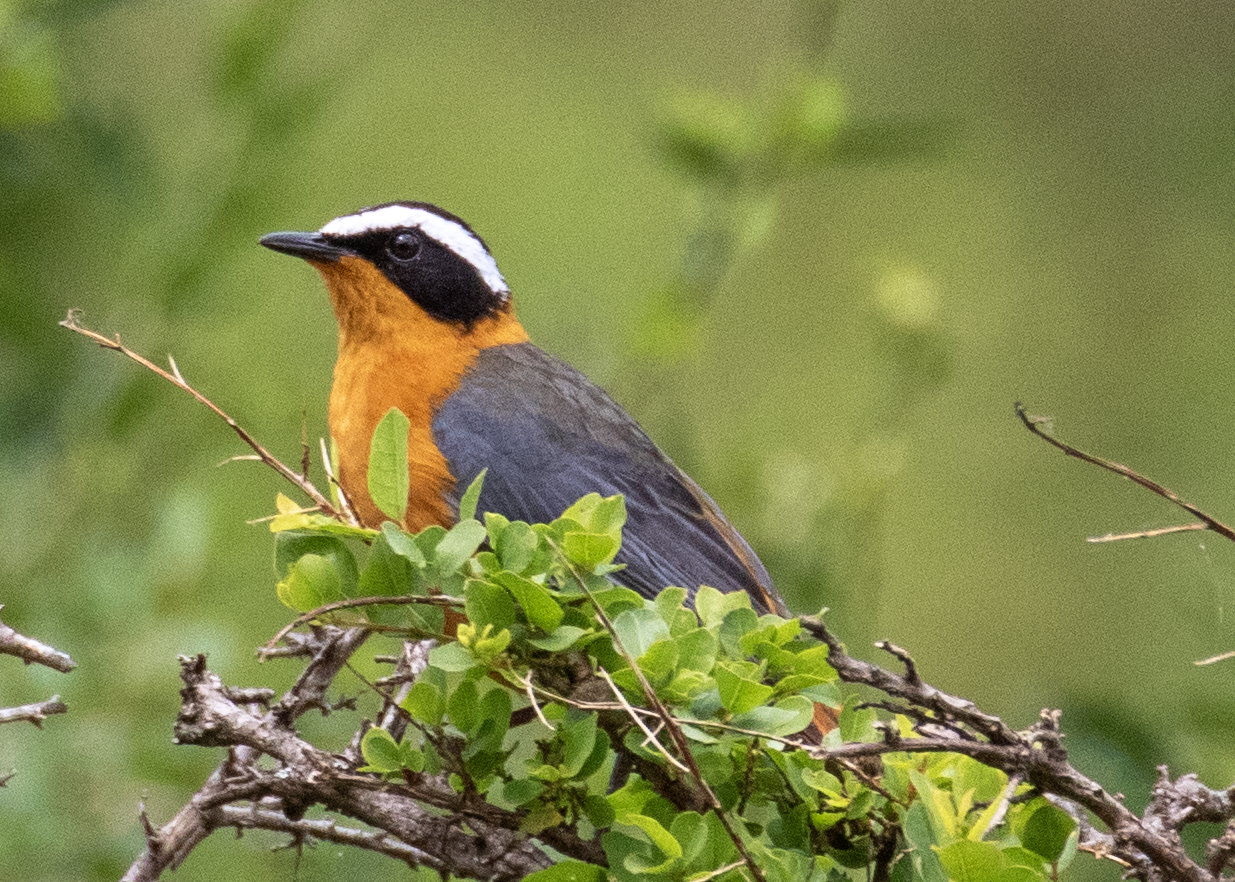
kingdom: Animalia
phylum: Chordata
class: Aves
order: Passeriformes
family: Muscicapidae
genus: Cossypha
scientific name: Cossypha heuglini
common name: White-browed robin-chat
